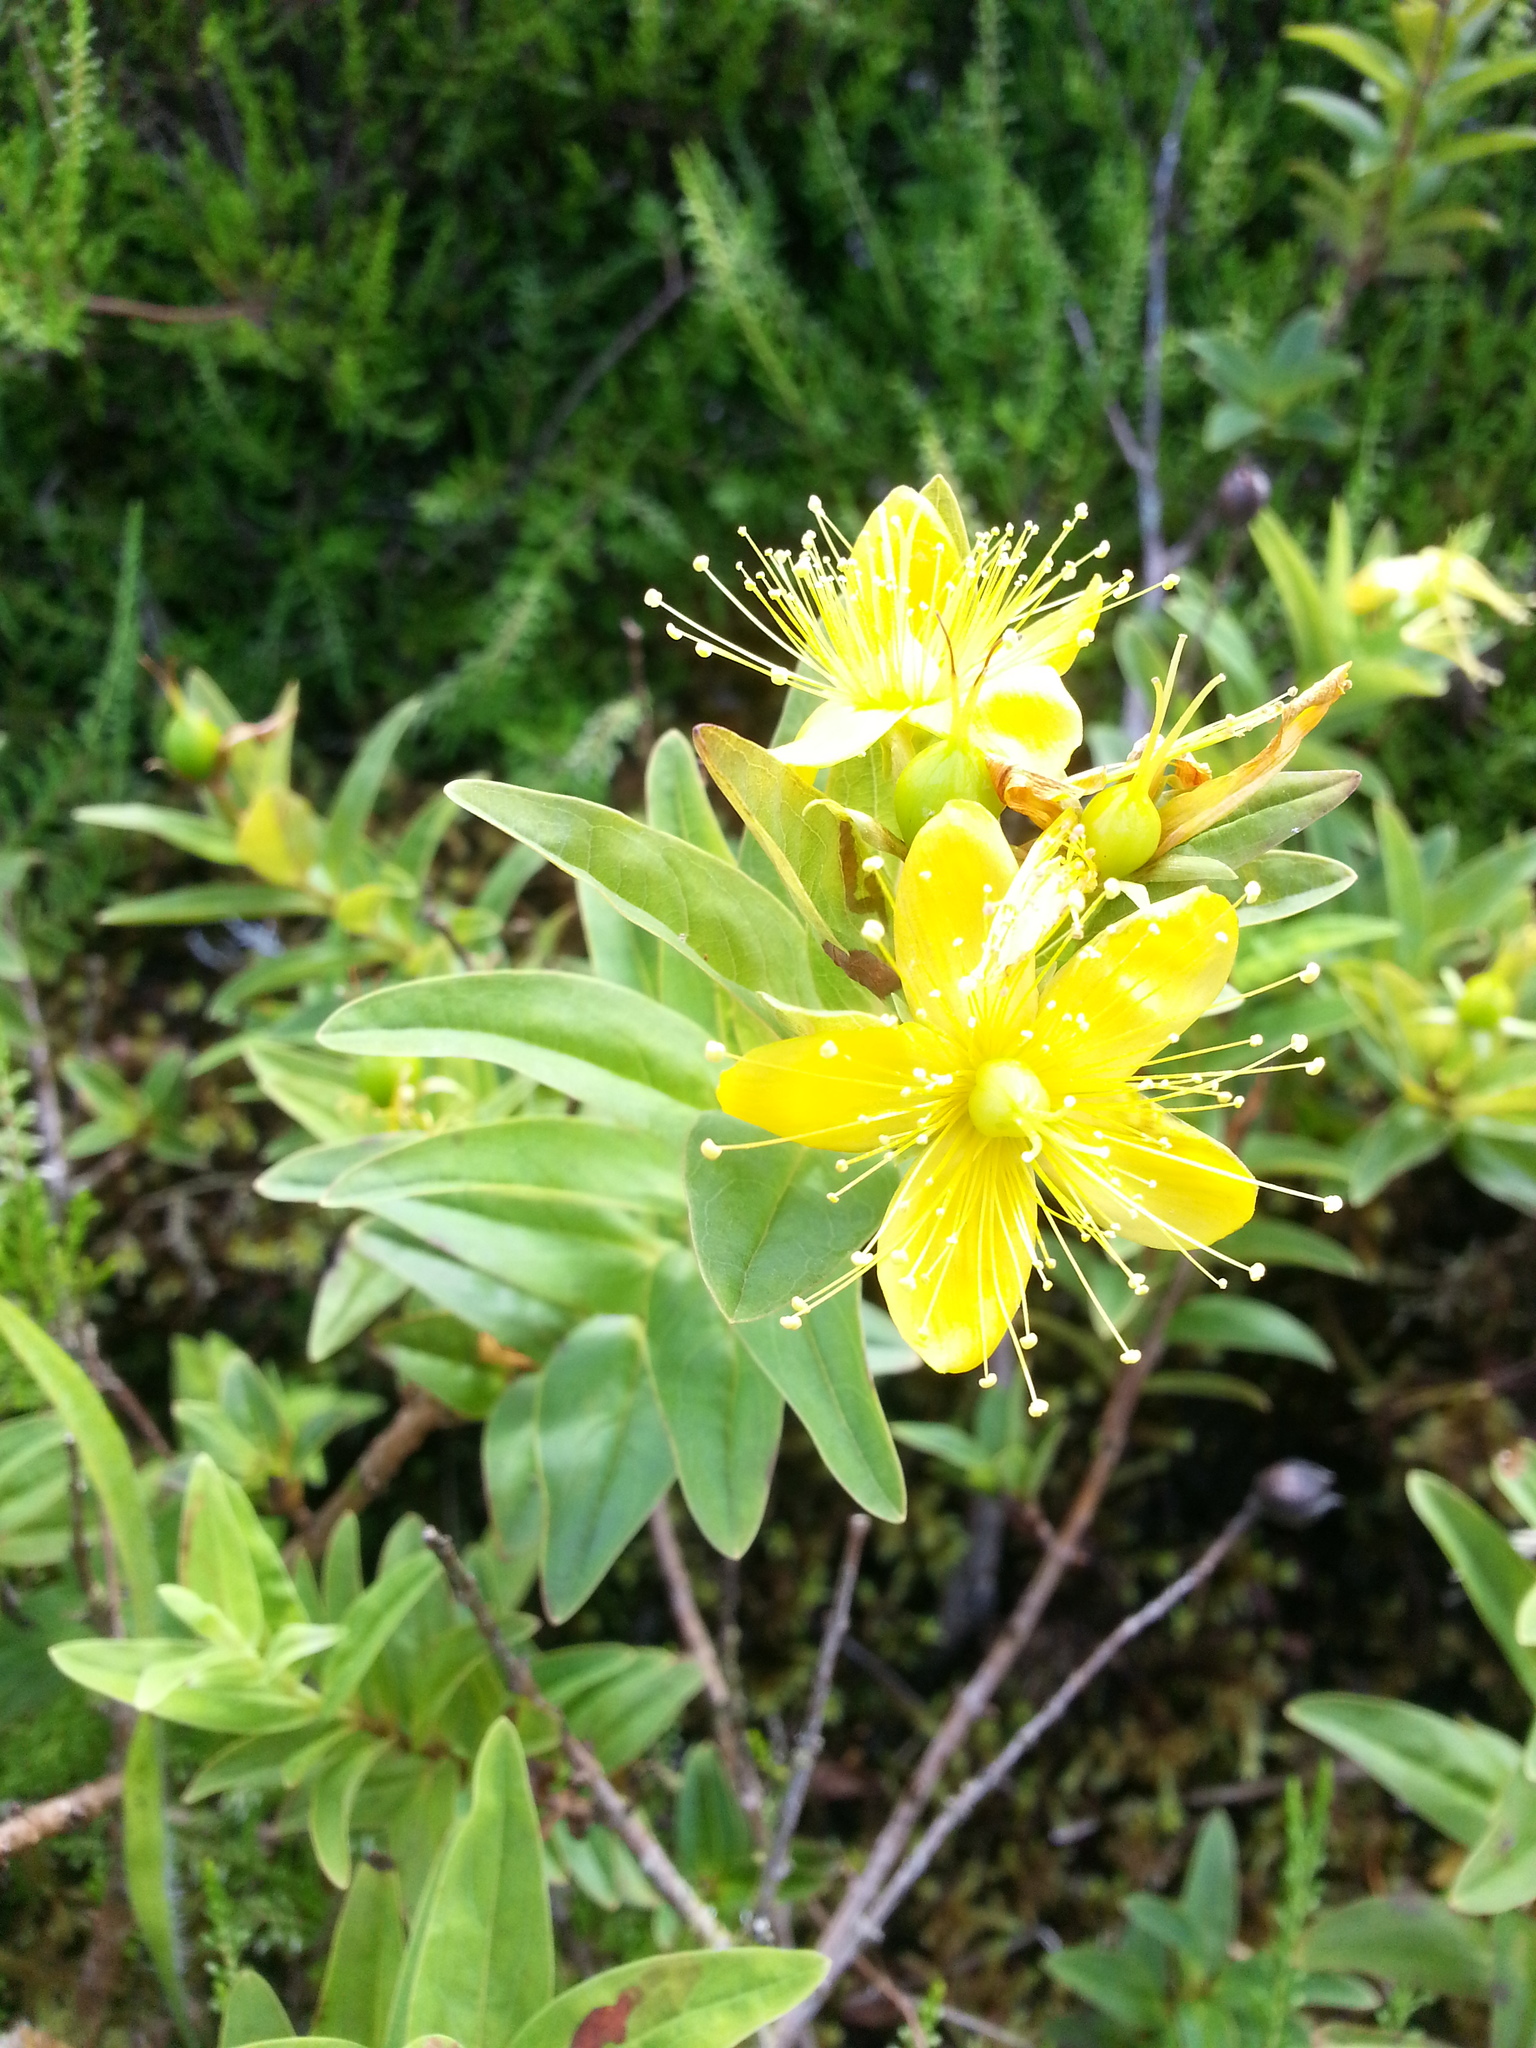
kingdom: Plantae
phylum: Tracheophyta
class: Magnoliopsida
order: Malpighiales
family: Hypericaceae
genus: Hypericum
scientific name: Hypericum foliosum
